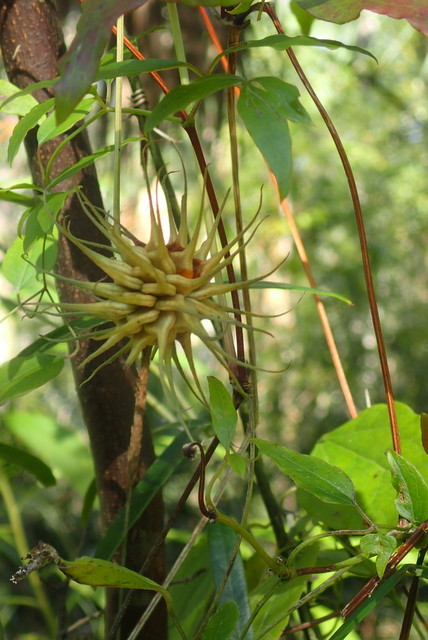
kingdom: Plantae
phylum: Tracheophyta
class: Magnoliopsida
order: Ranunculales
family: Ranunculaceae
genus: Clematis
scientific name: Clematis crispa
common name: Curly clematis
